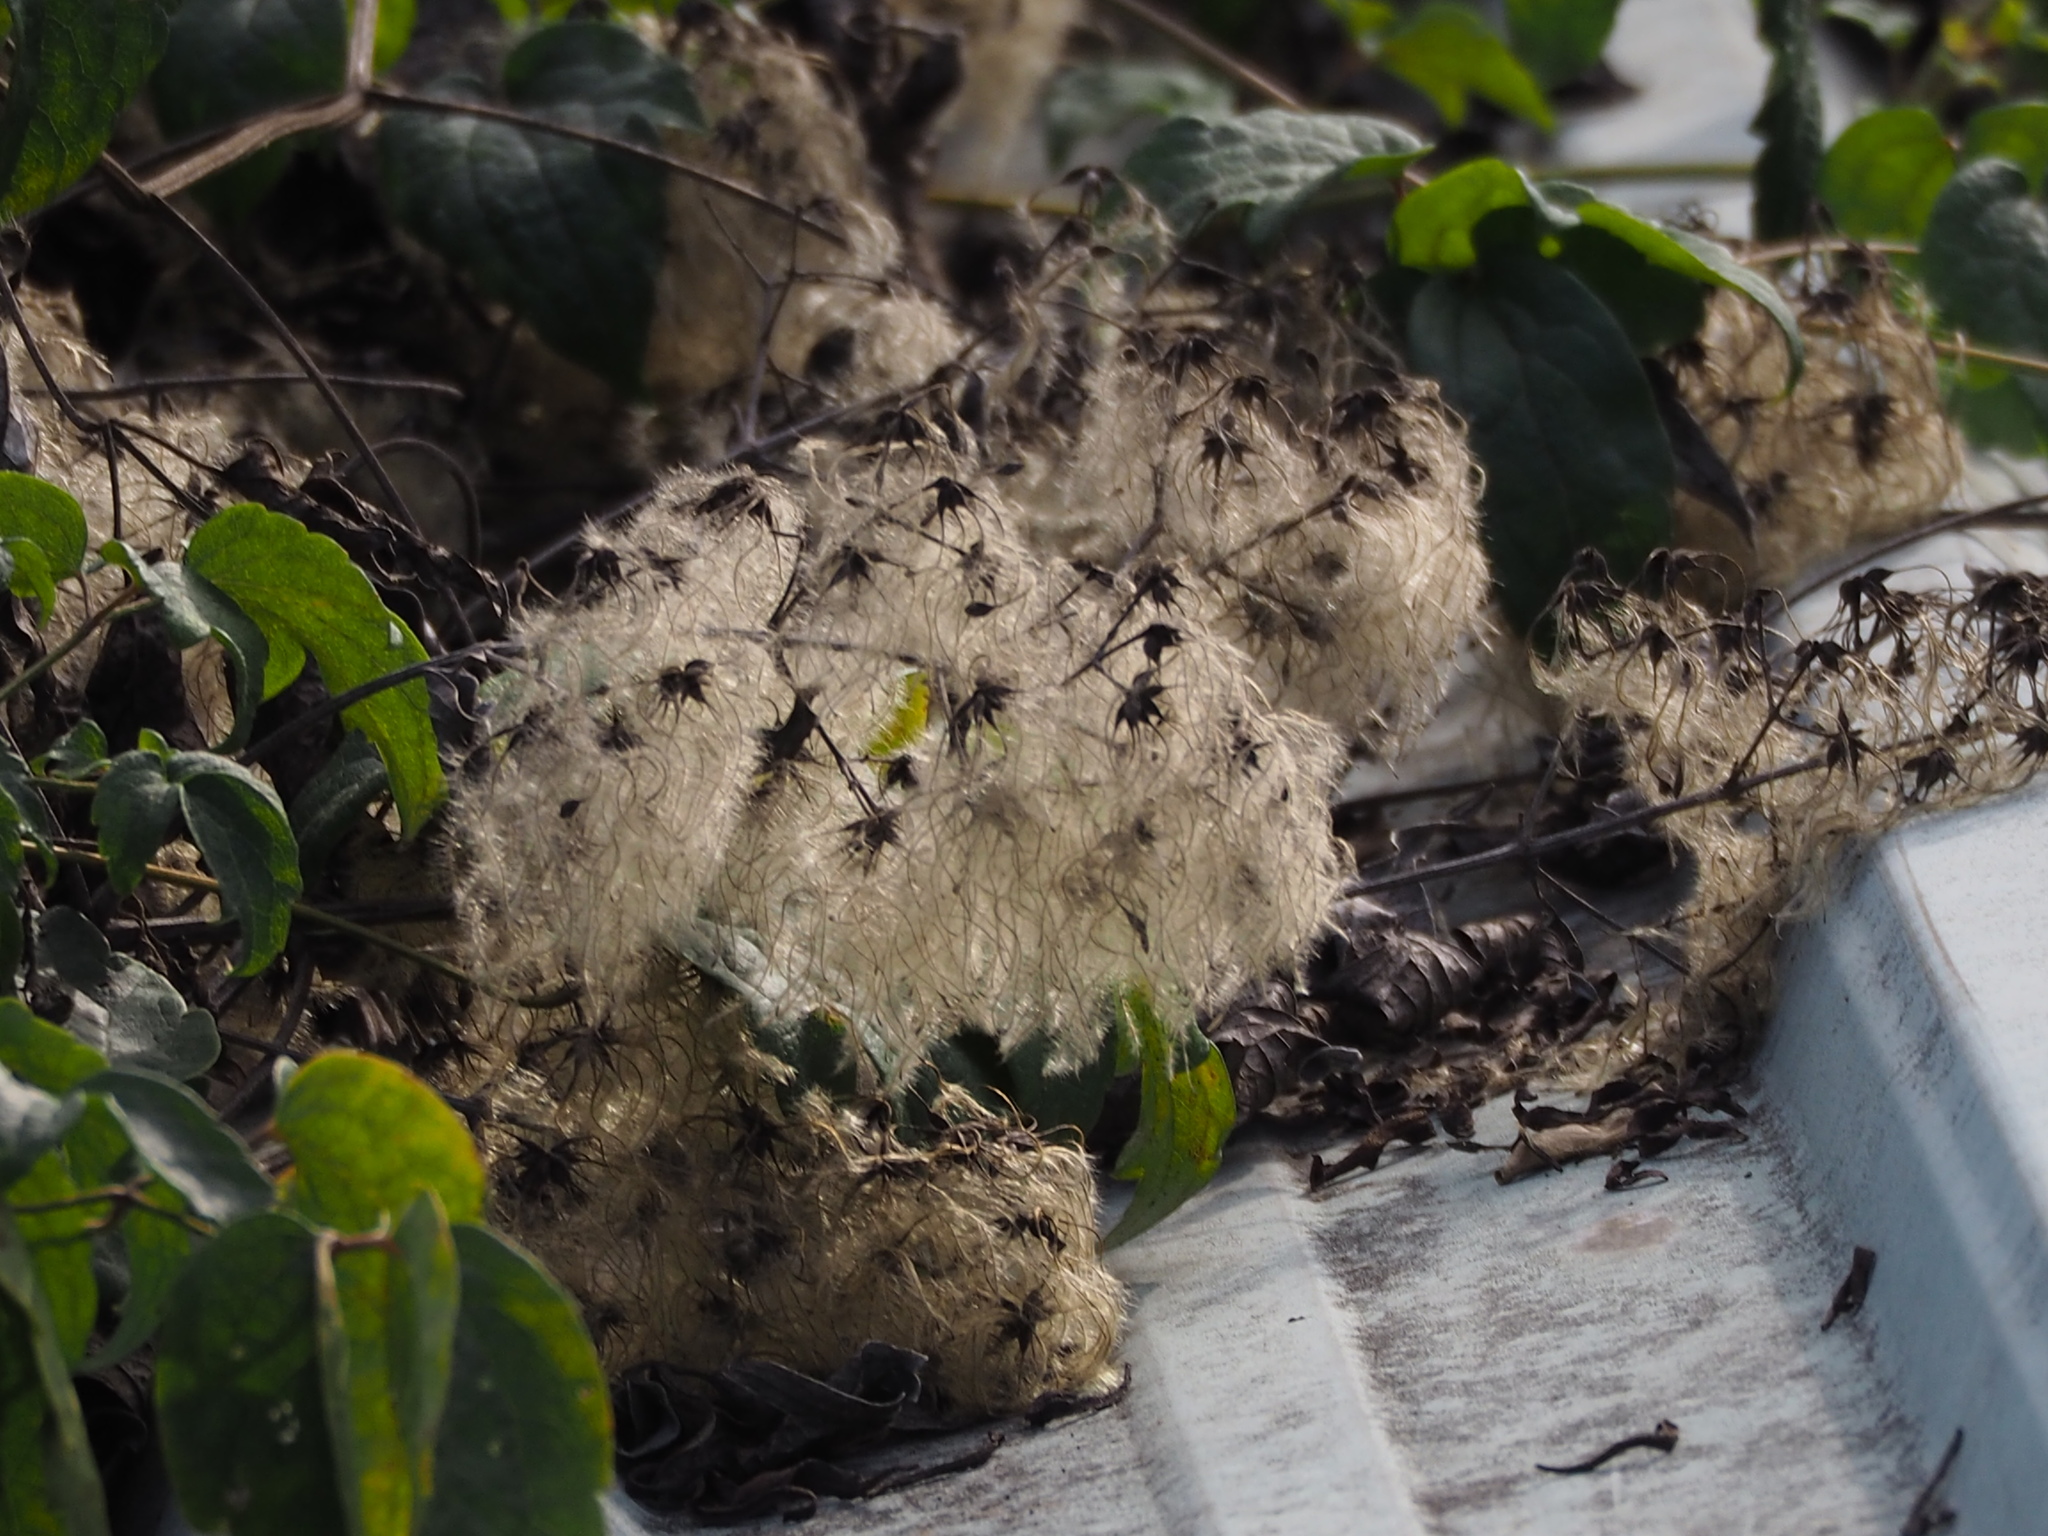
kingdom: Plantae
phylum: Tracheophyta
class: Magnoliopsida
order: Ranunculales
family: Ranunculaceae
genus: Clematis
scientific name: Clematis grata
